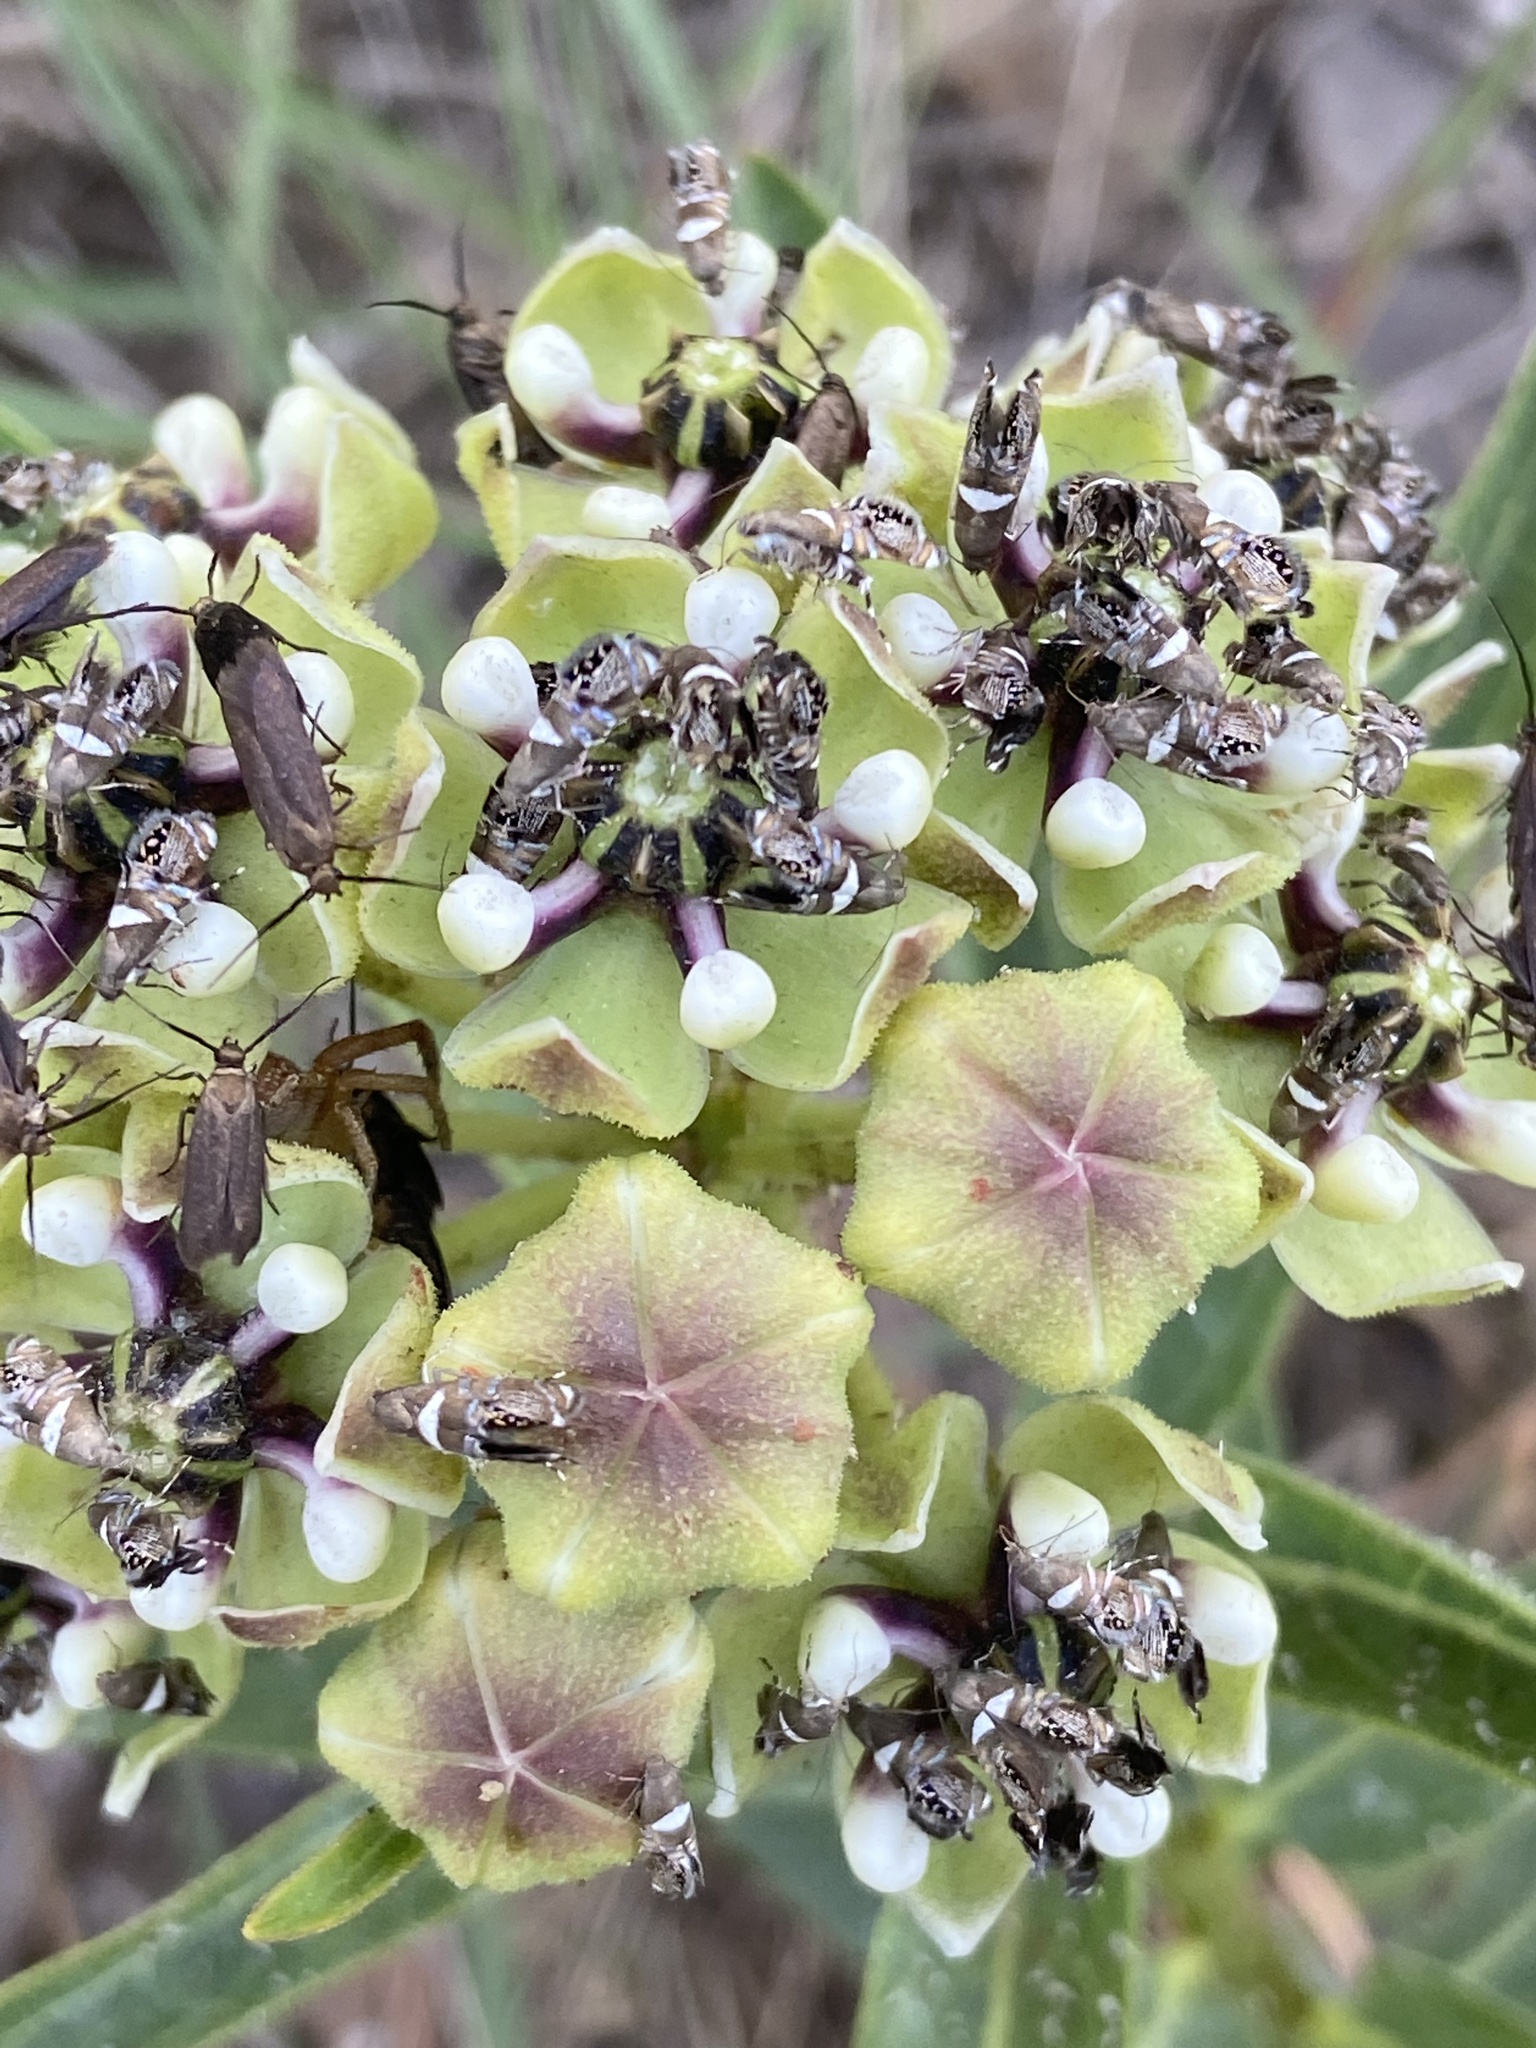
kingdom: Animalia
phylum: Arthropoda
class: Insecta
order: Lepidoptera
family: Glyphipterigidae
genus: Glyphipterix
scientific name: Glyphipterix circumscriptella
